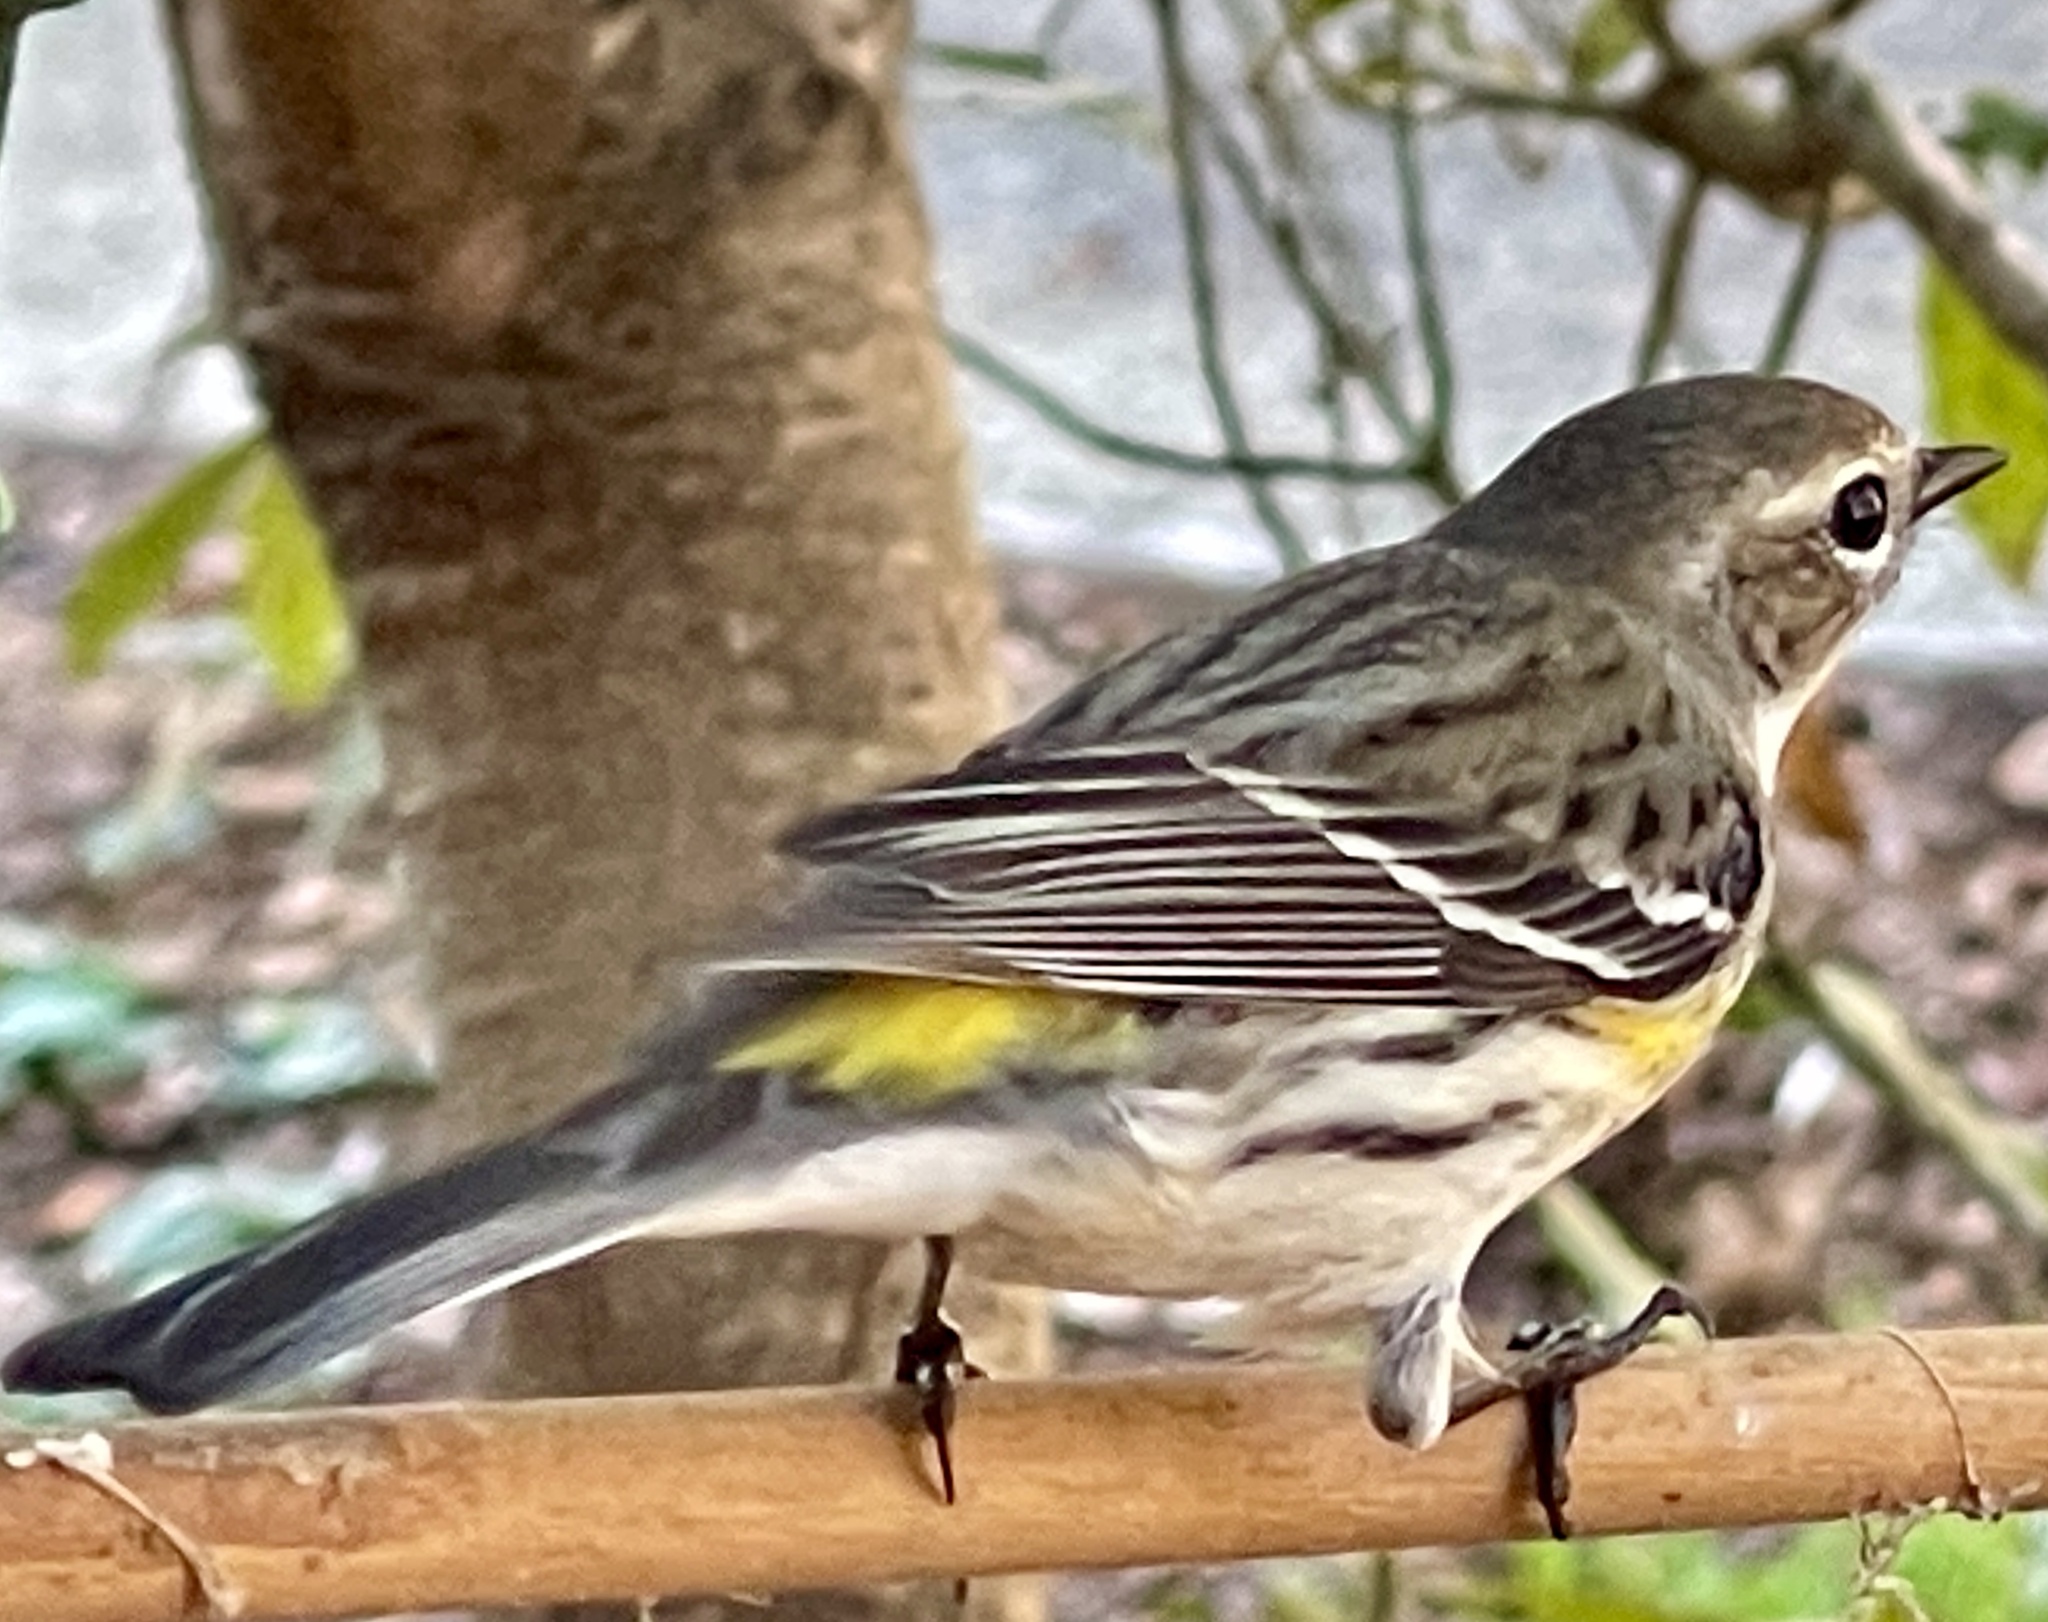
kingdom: Animalia
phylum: Chordata
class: Aves
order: Passeriformes
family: Parulidae
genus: Setophaga
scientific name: Setophaga coronata
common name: Myrtle warbler
